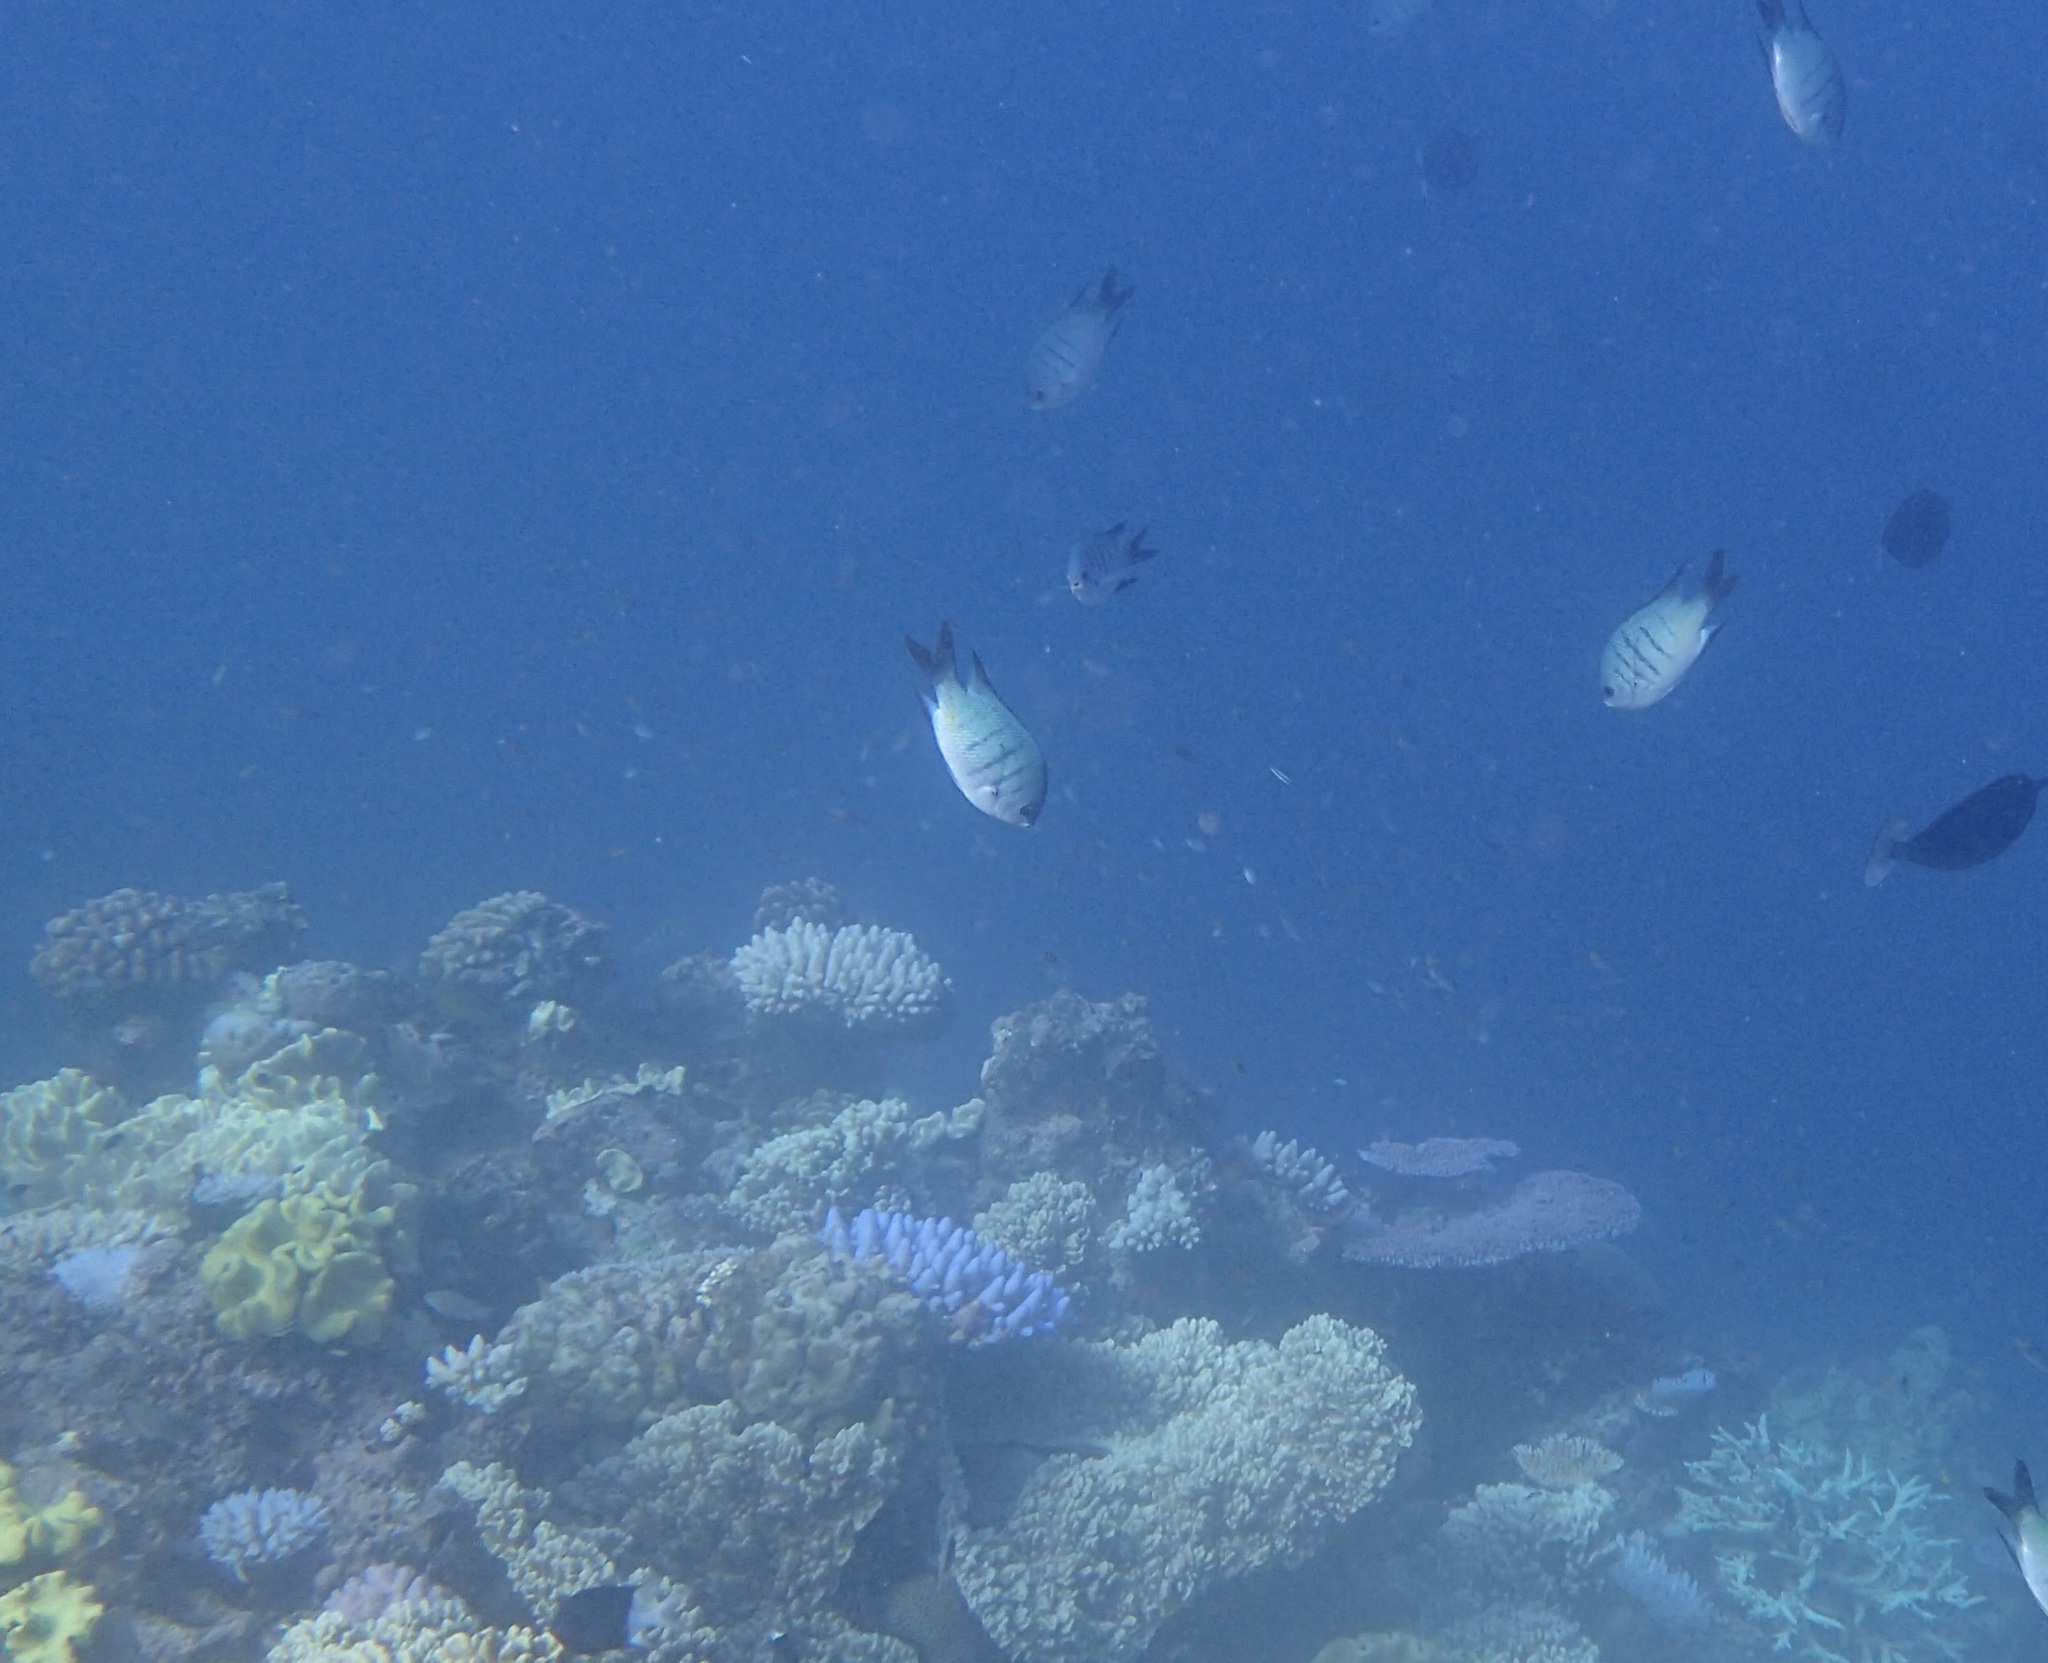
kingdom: Animalia
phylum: Chordata
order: Perciformes
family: Pomacentridae
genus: Abudefduf
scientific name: Abudefduf whitleyi
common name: Whitley's seargent
